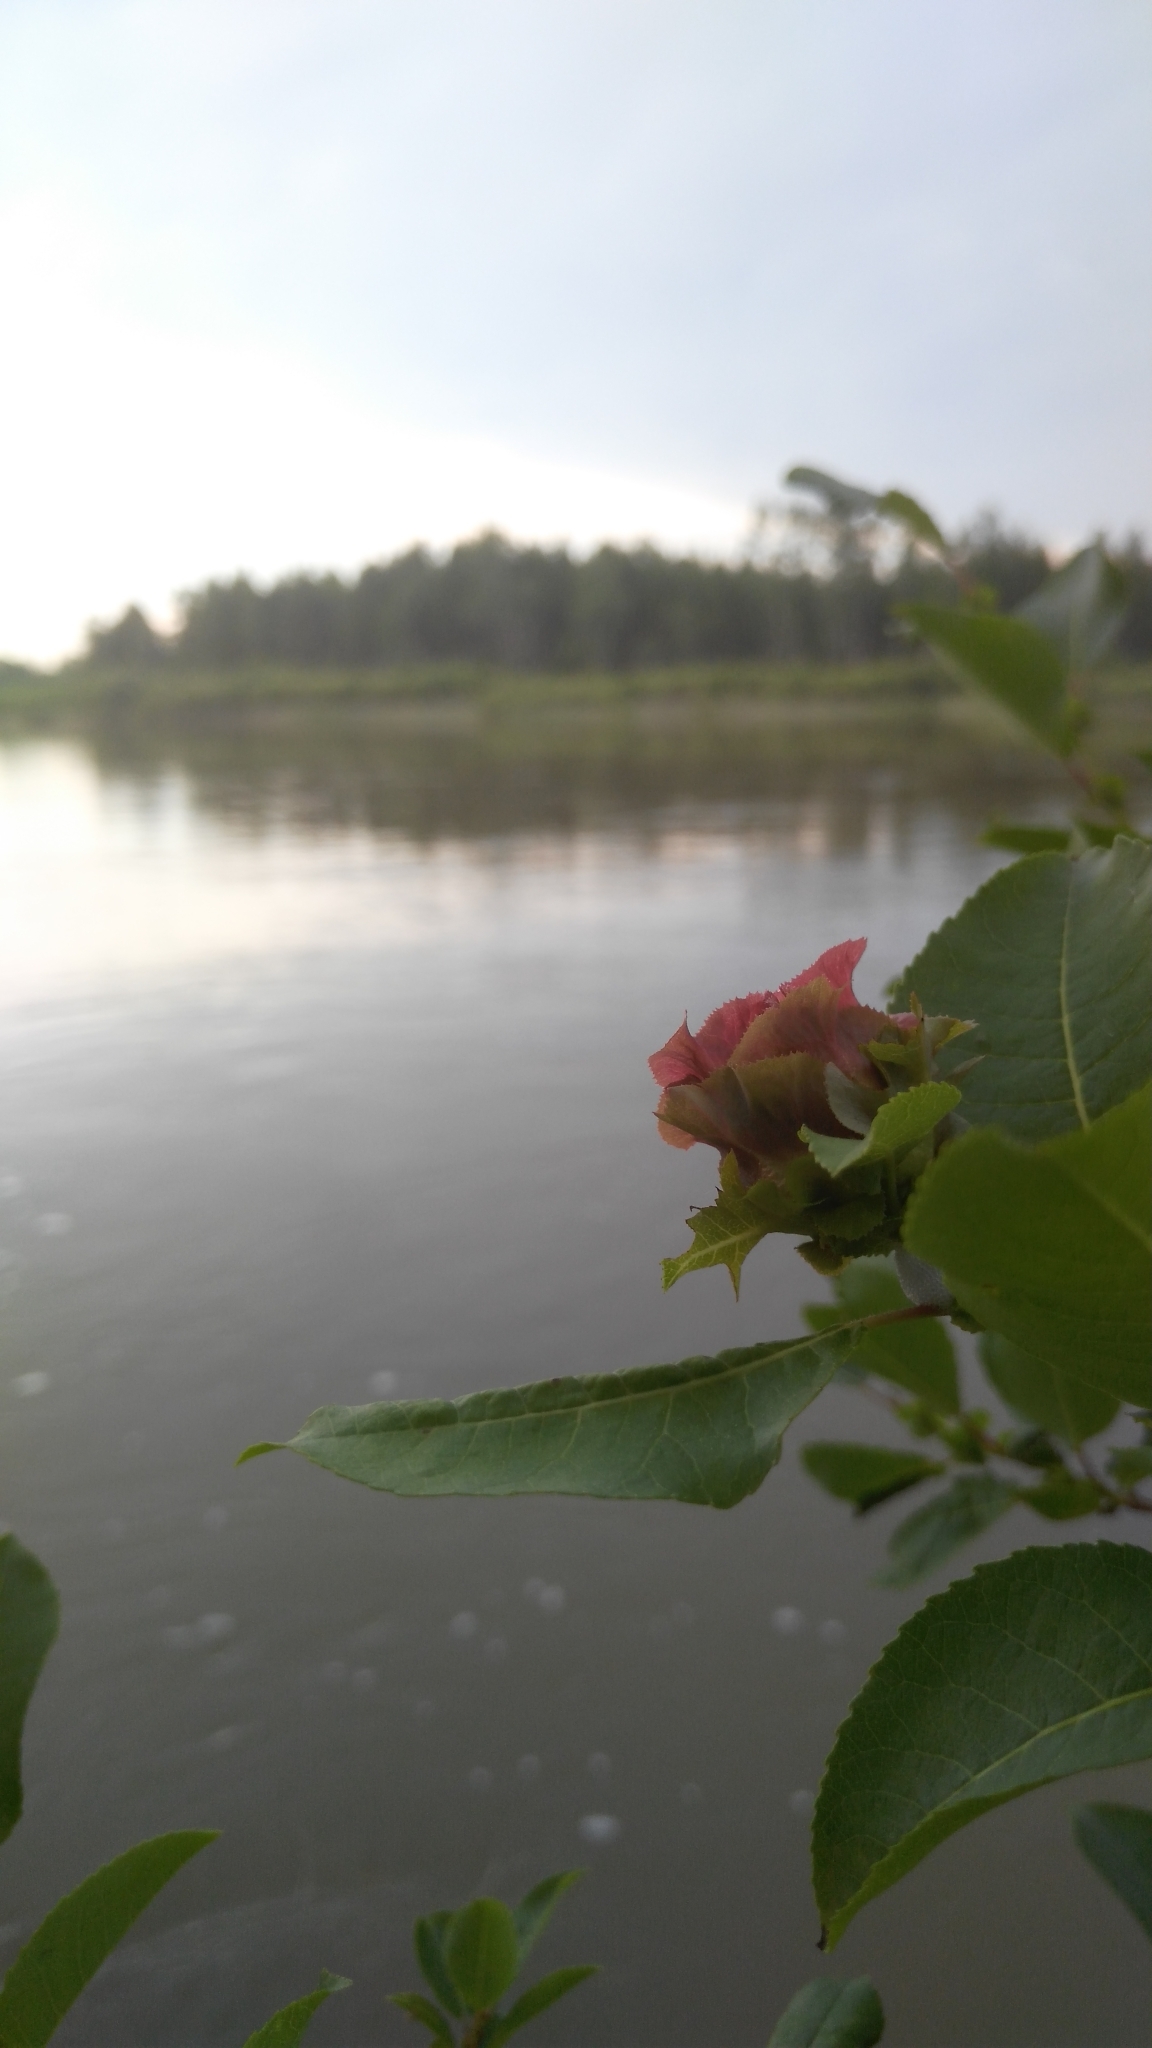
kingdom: Animalia
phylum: Arthropoda
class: Insecta
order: Diptera
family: Cecidomyiidae
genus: Rabdophaga
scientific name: Rabdophaga rosaria
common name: Willow rose gall midge
